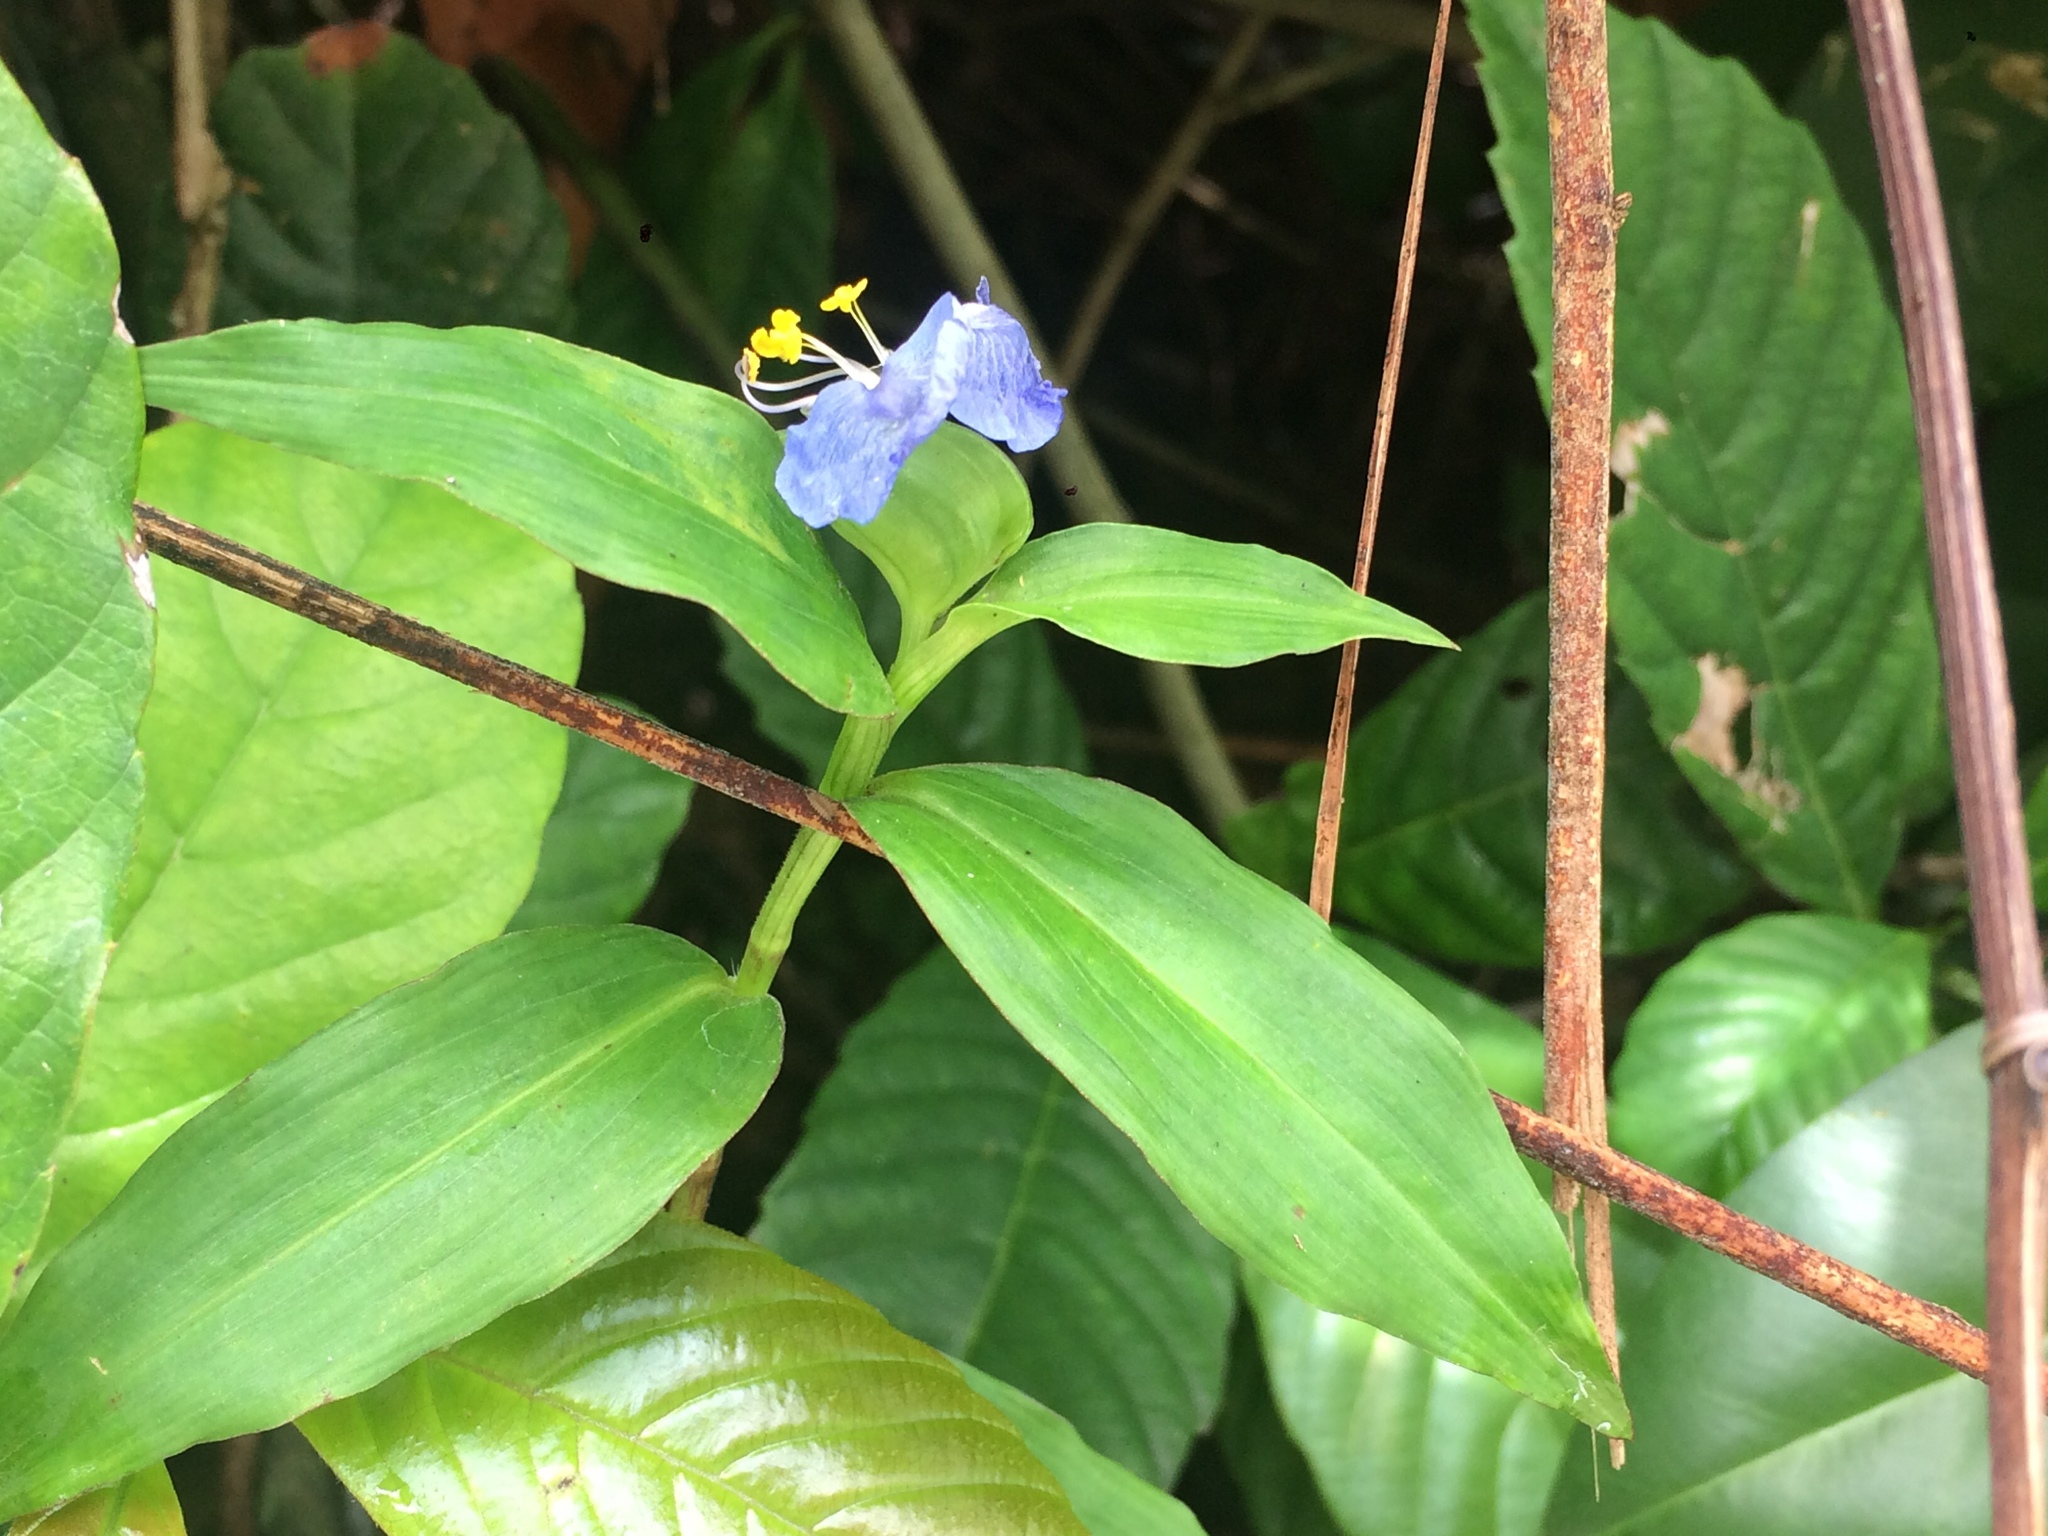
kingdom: Plantae
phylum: Tracheophyta
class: Liliopsida
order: Commelinales
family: Commelinaceae
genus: Commelina
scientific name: Commelina erecta
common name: Blousel blommetjie
